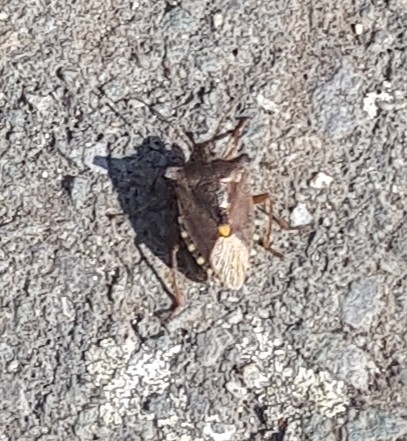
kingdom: Animalia
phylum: Arthropoda
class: Insecta
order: Hemiptera
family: Pentatomidae
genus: Pentatoma
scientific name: Pentatoma rufipes
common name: Forest bug
